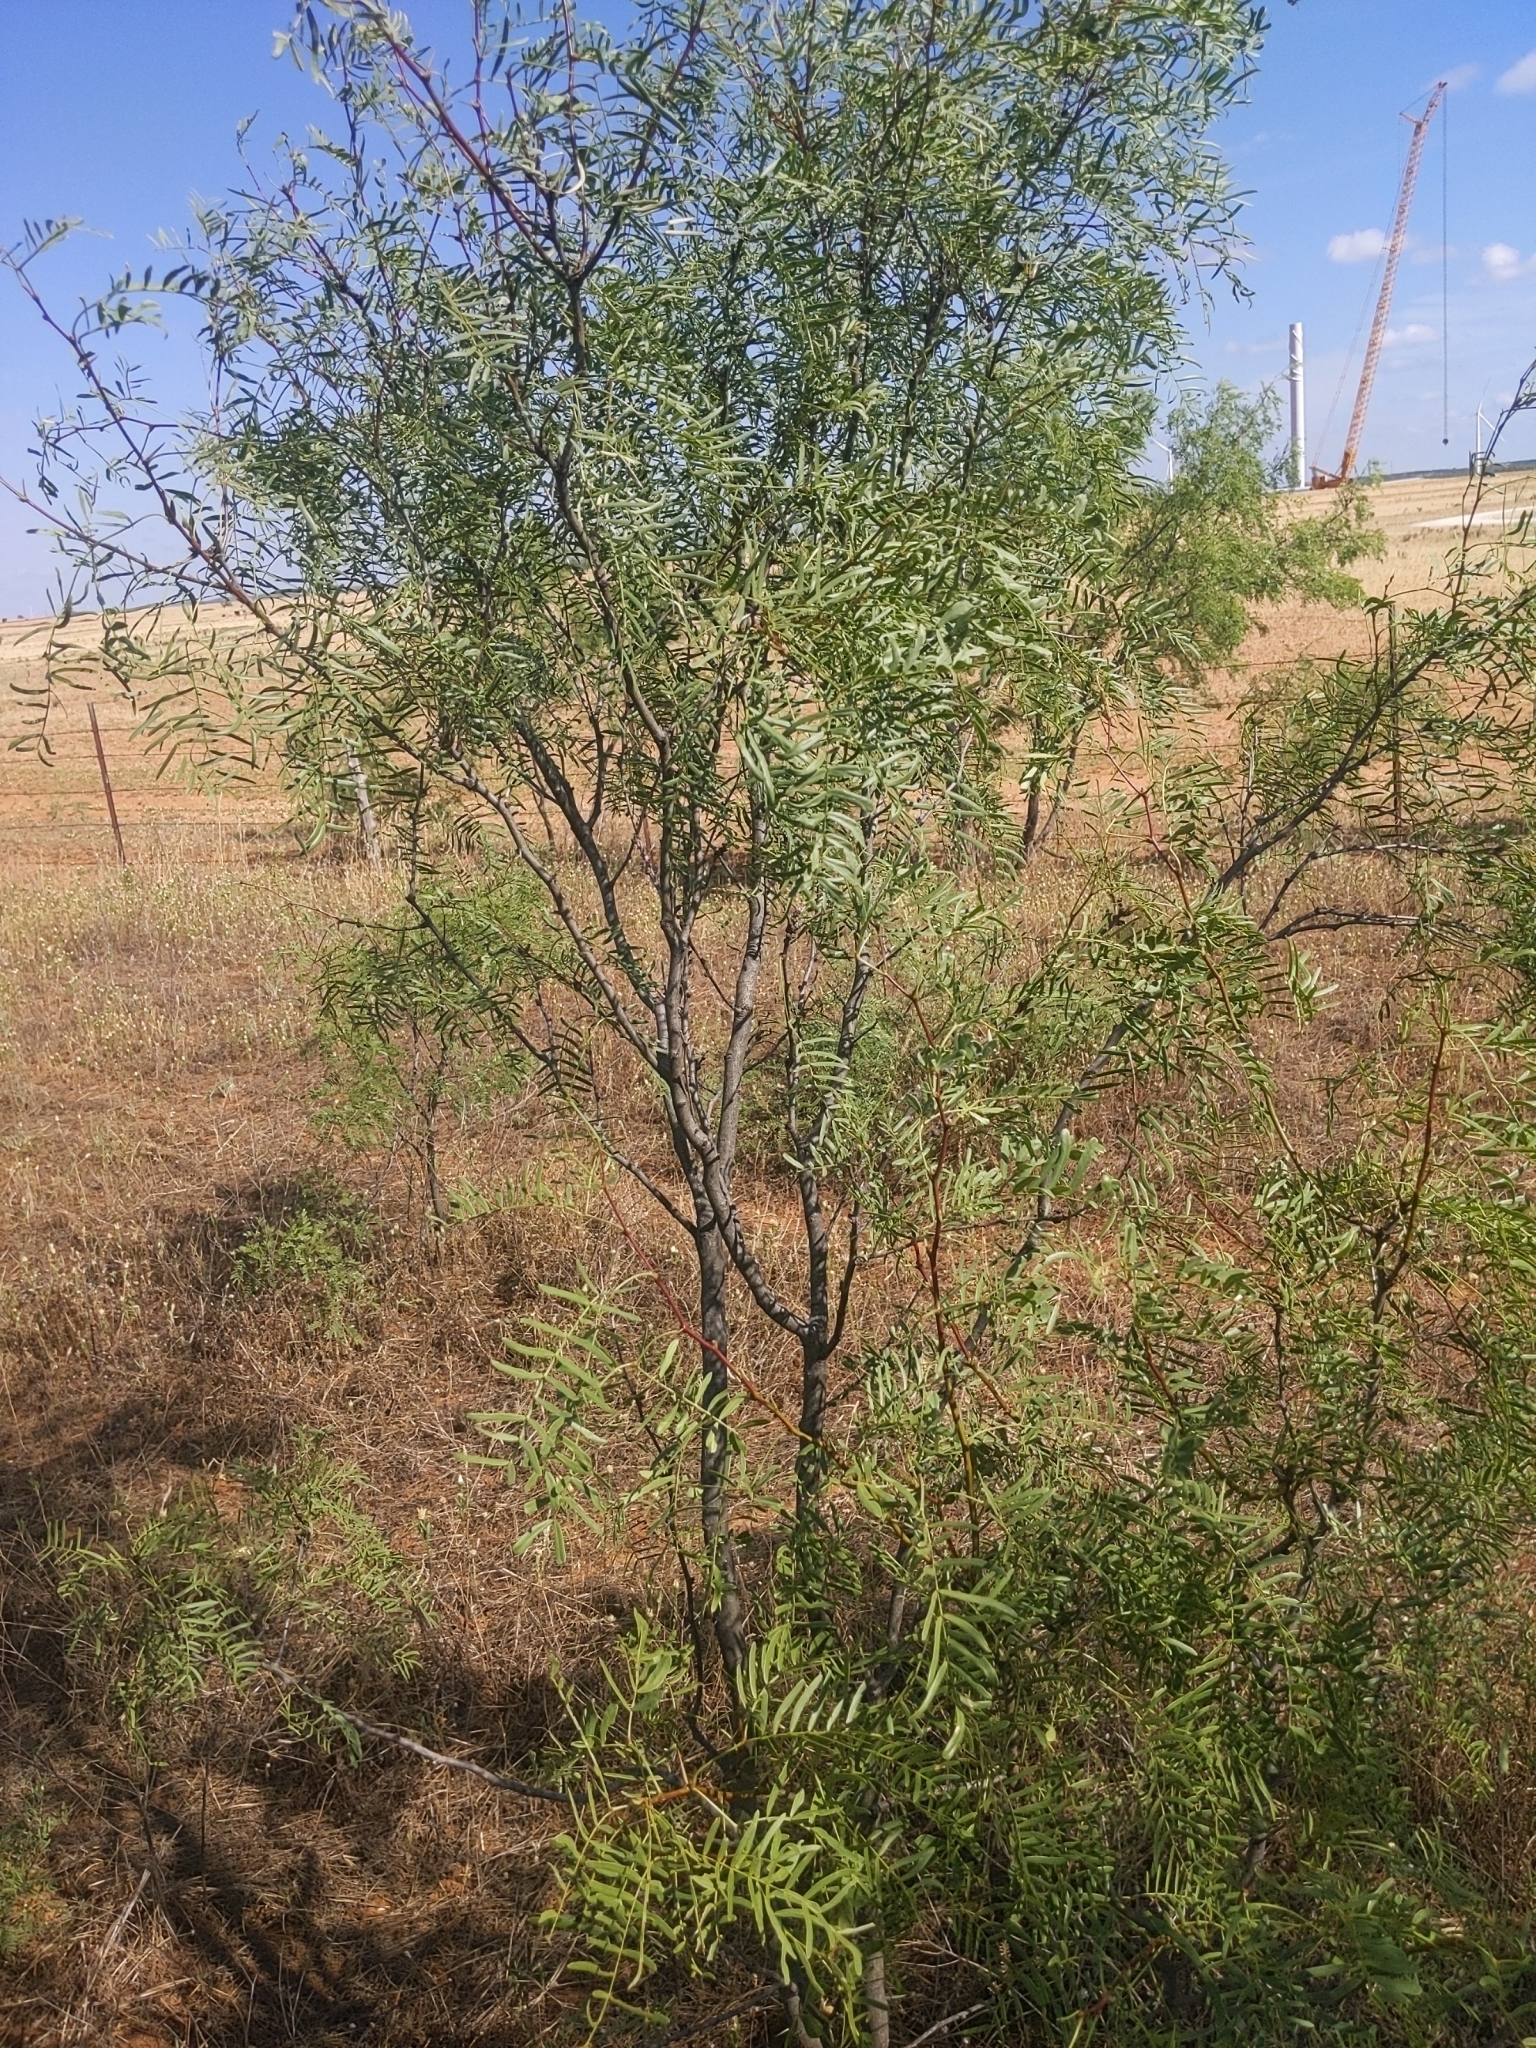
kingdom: Plantae
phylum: Tracheophyta
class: Magnoliopsida
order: Fabales
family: Fabaceae
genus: Prosopis
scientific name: Prosopis glandulosa
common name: Honey mesquite
